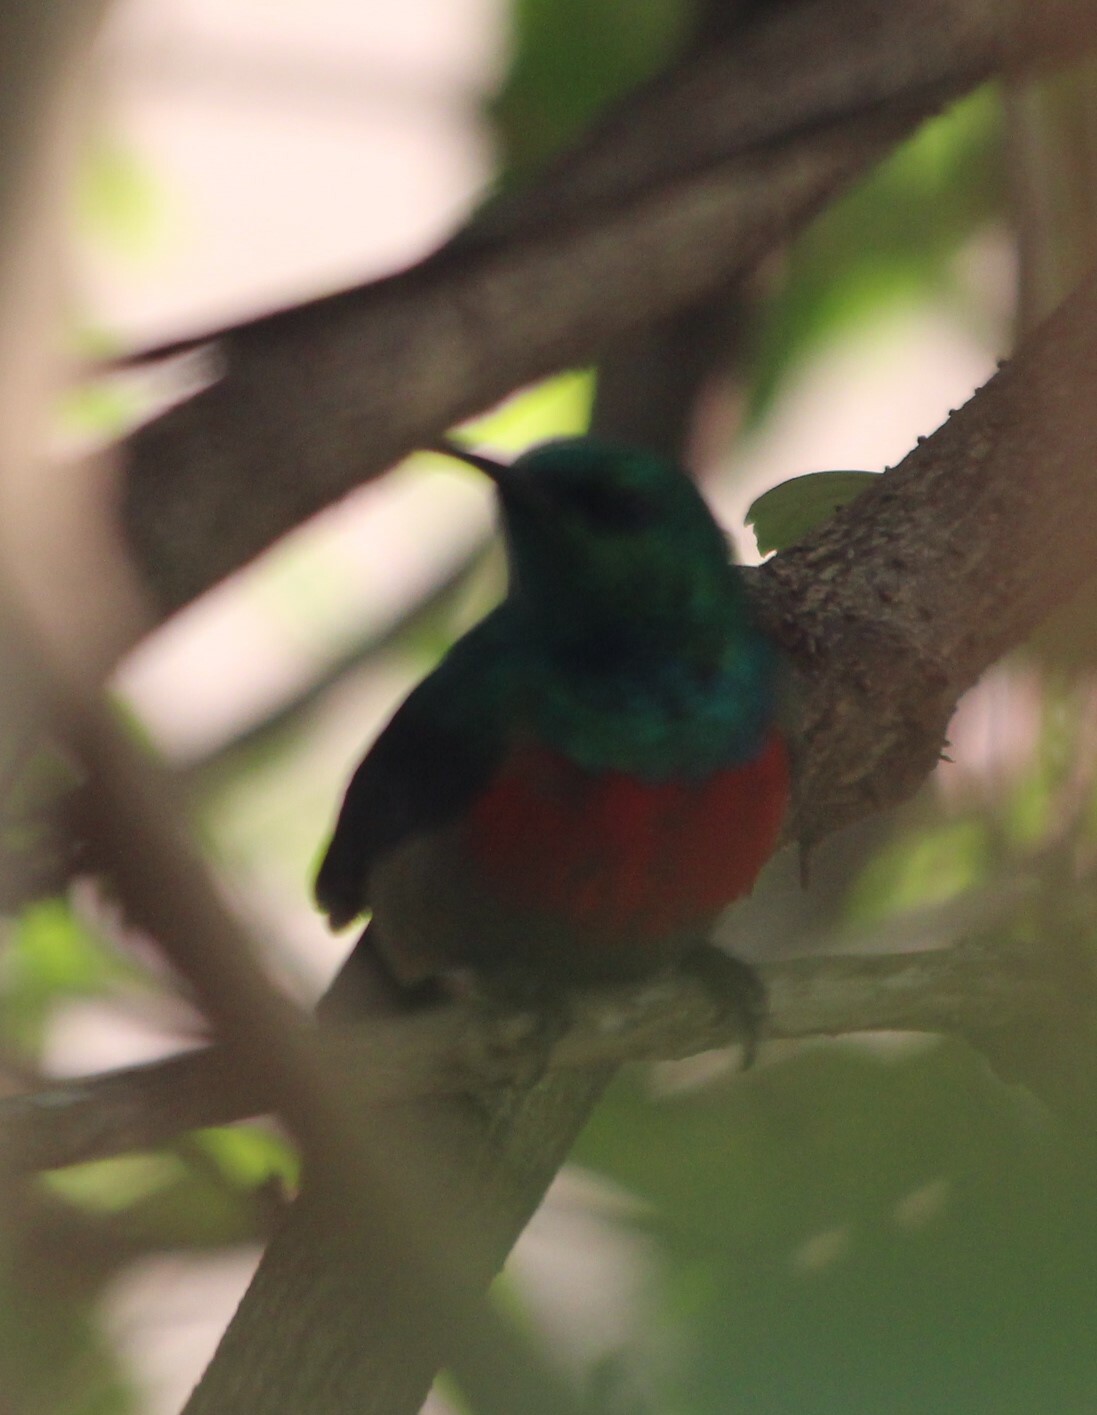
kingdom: Animalia
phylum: Chordata
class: Aves
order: Passeriformes
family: Nectariniidae
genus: Cinnyris
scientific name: Cinnyris chloropygius
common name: Olive-bellied sunbird
